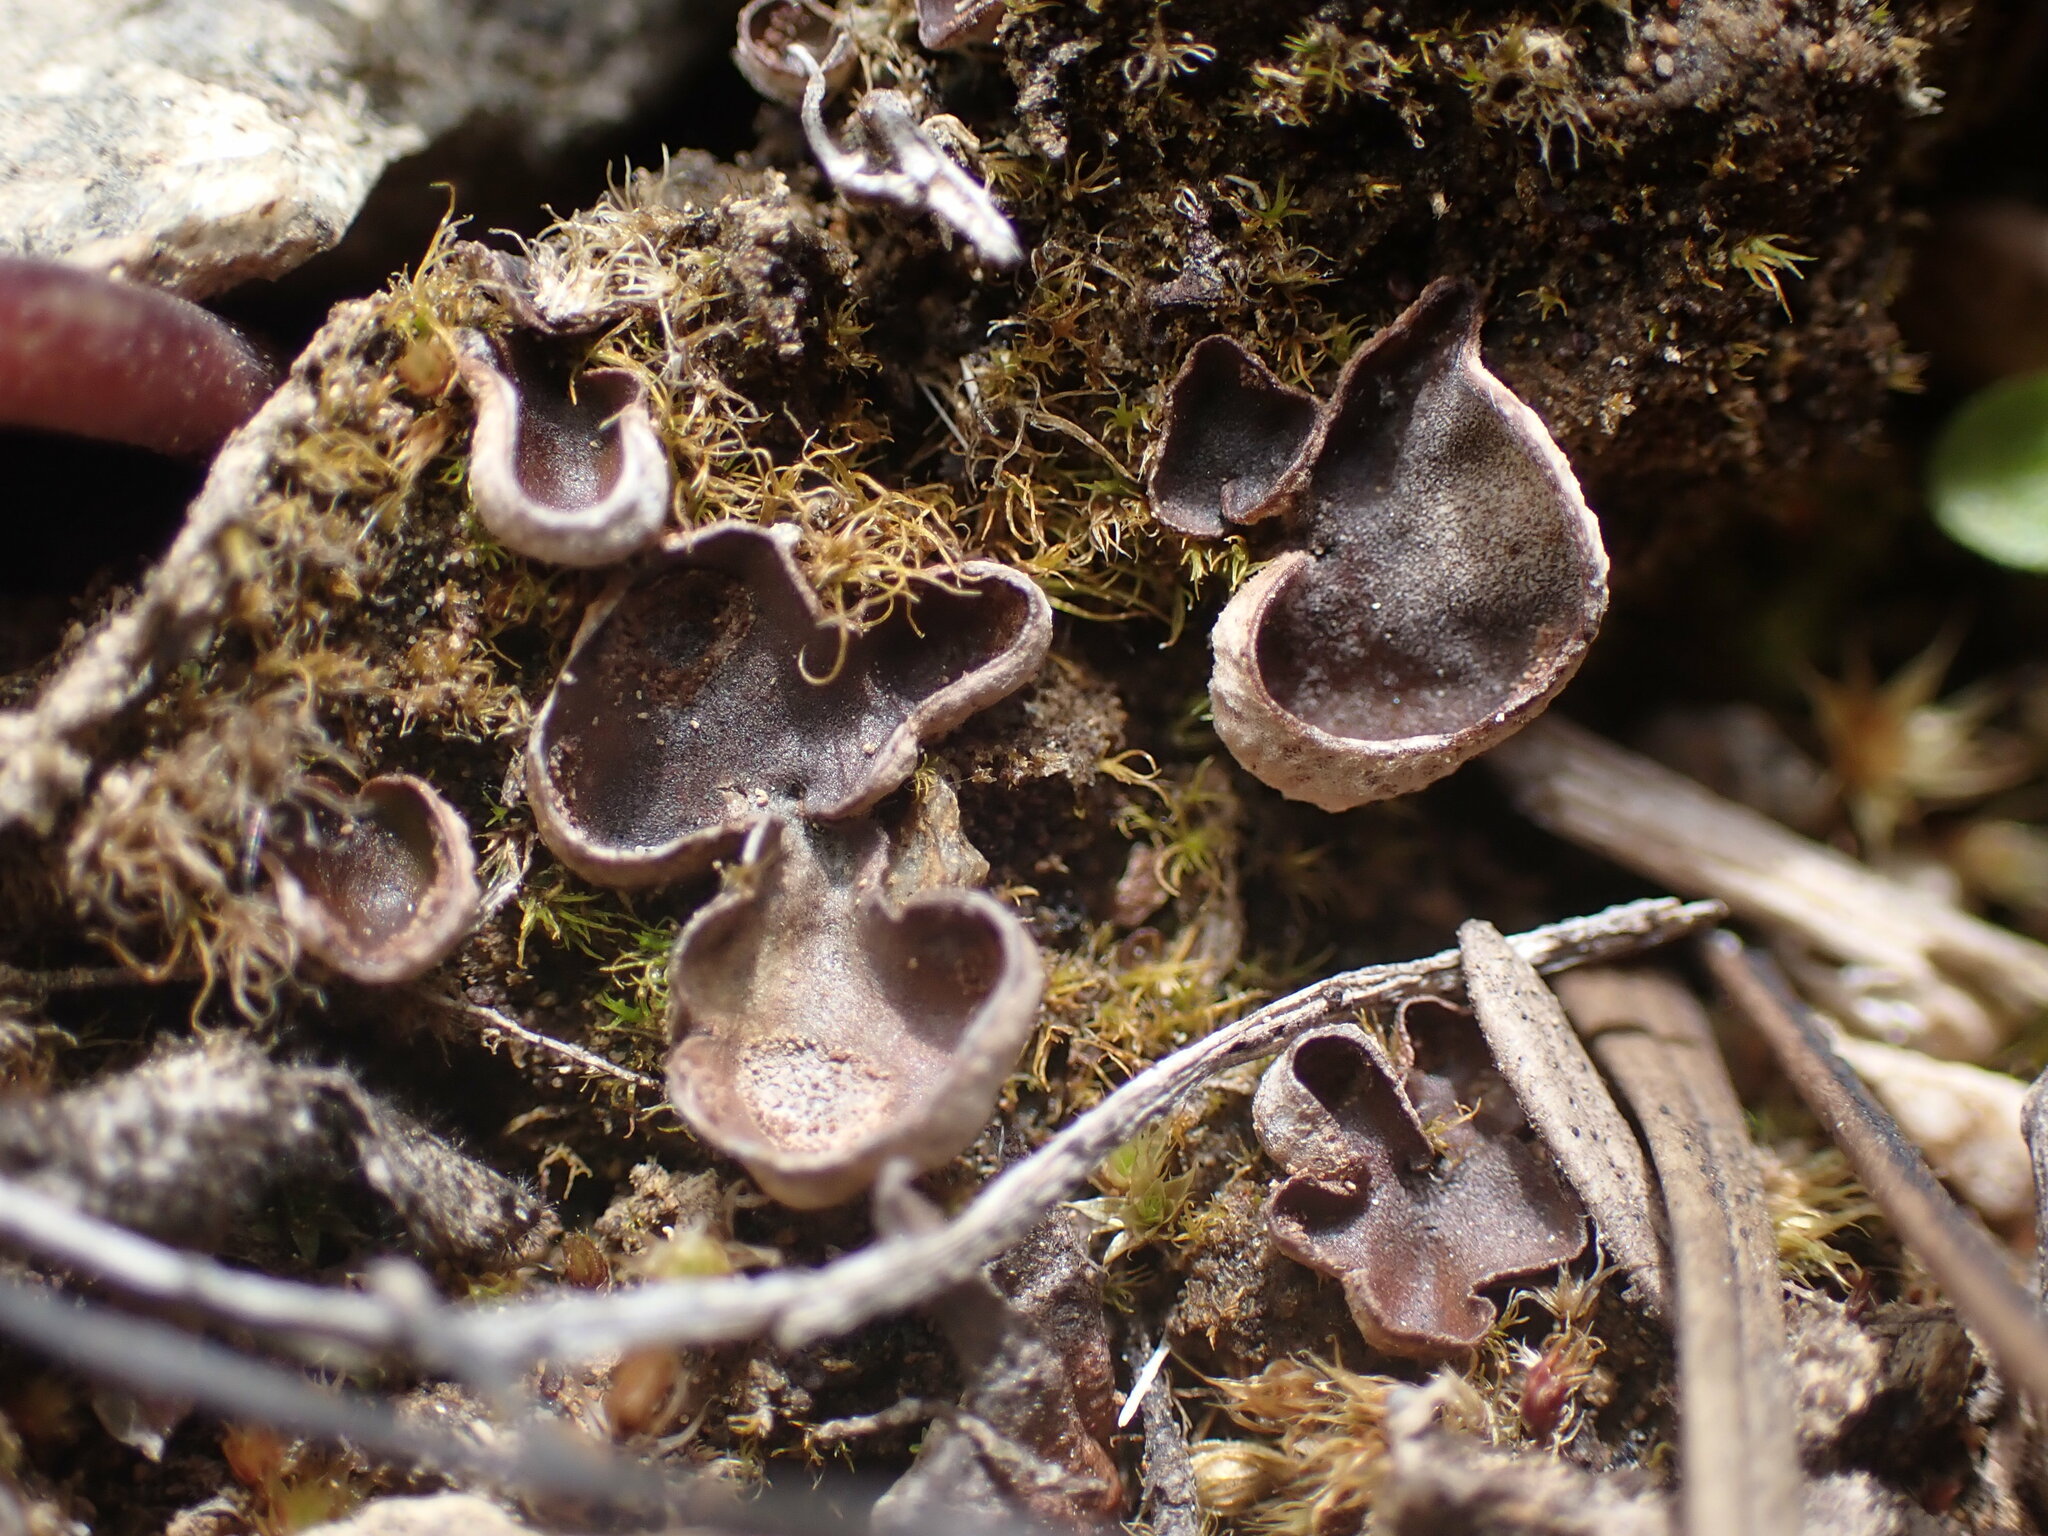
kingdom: Fungi
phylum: Ascomycota
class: Lecanoromycetes
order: Peltigerales
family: Peltigeraceae
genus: Peltigera
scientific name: Peltigera didactyla
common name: Alternating dog lichen
